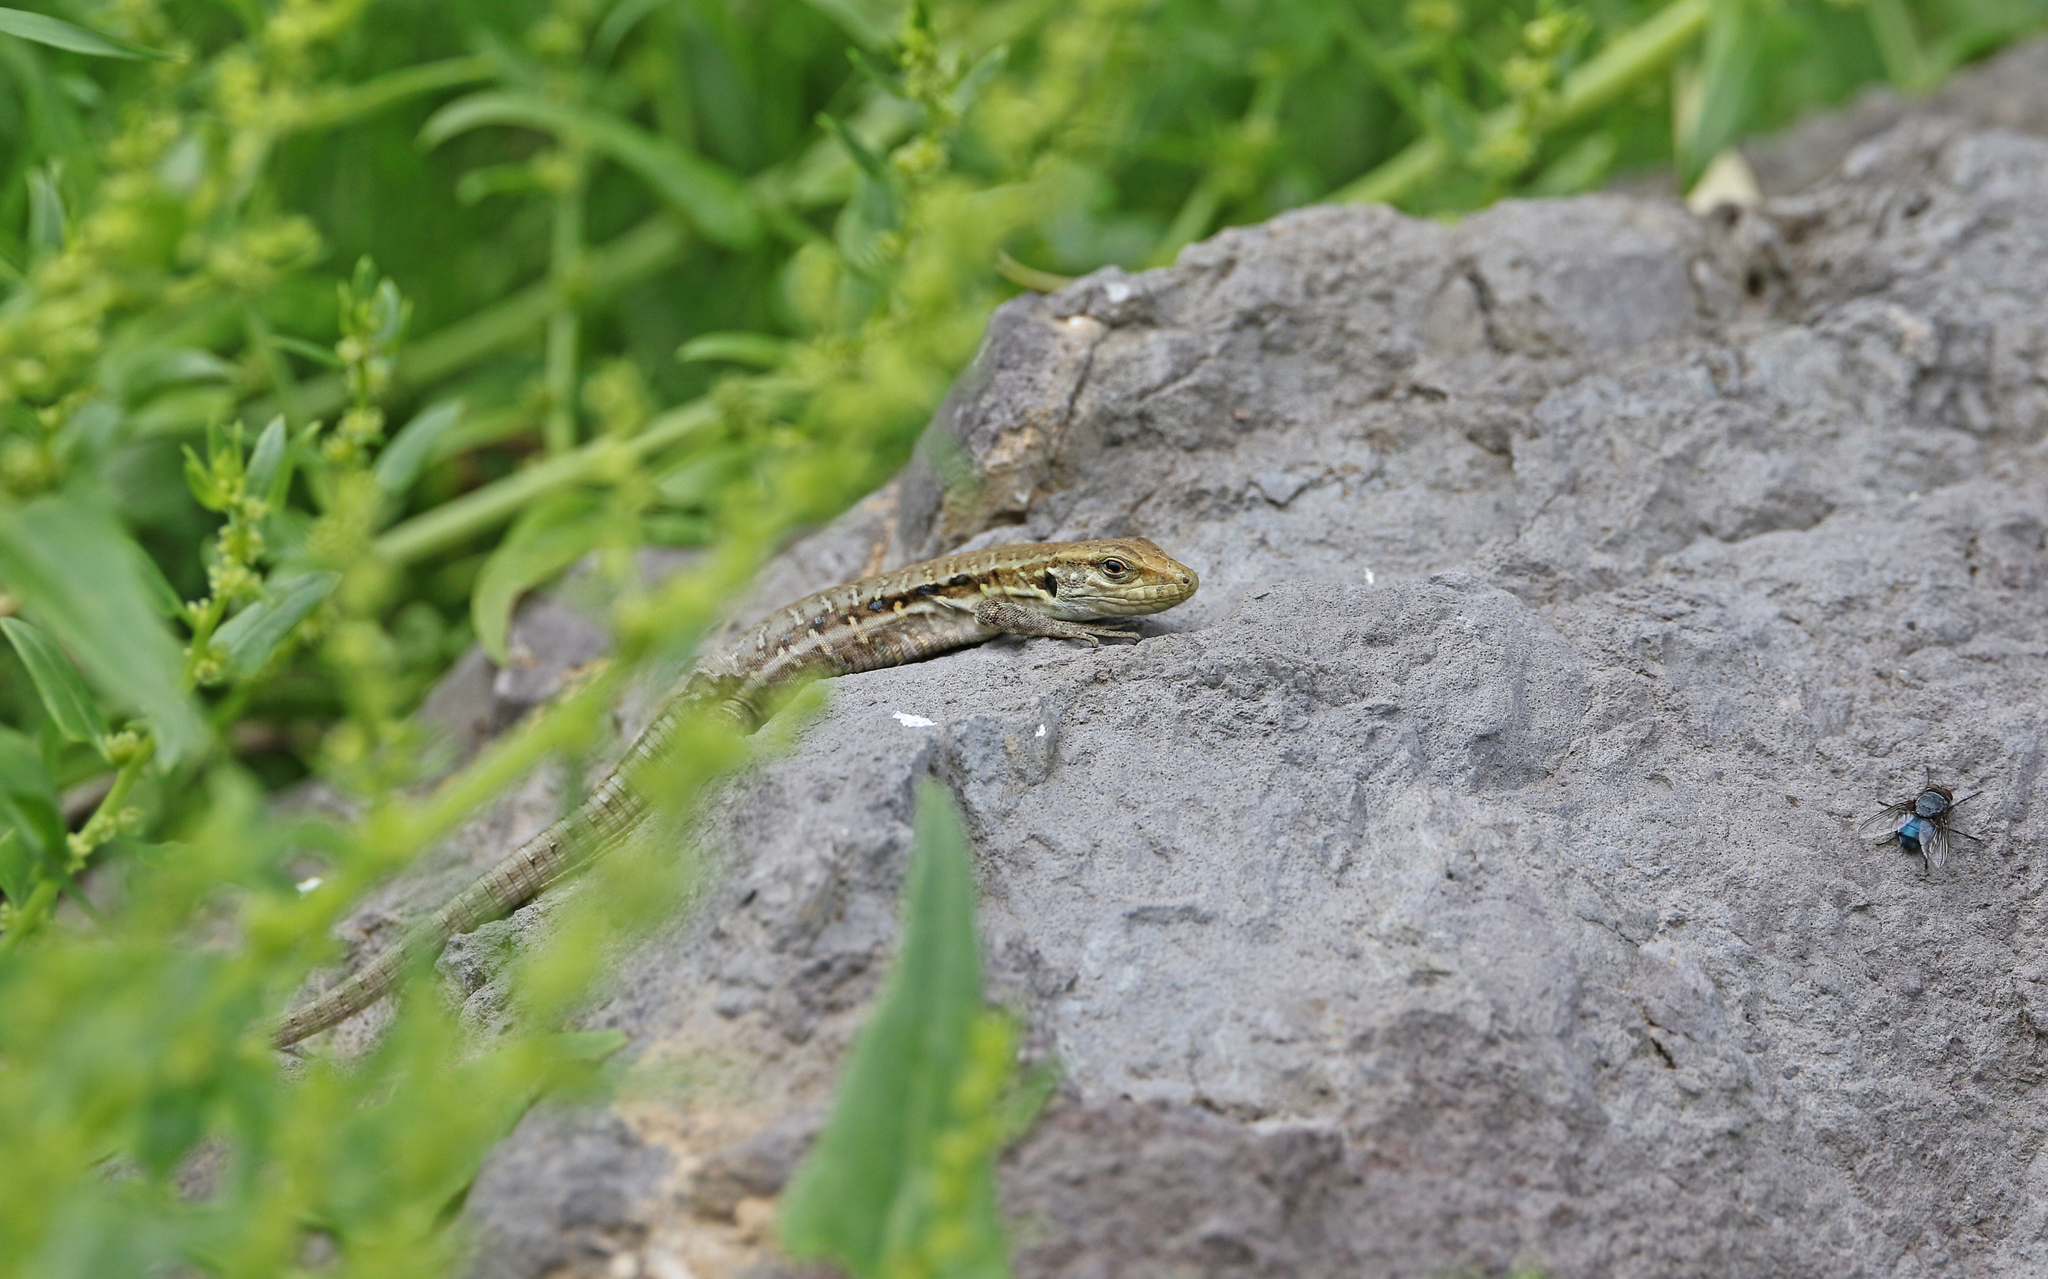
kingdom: Animalia
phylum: Chordata
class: Squamata
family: Lacertidae
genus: Gallotia
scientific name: Gallotia galloti
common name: Gallot's lizard
